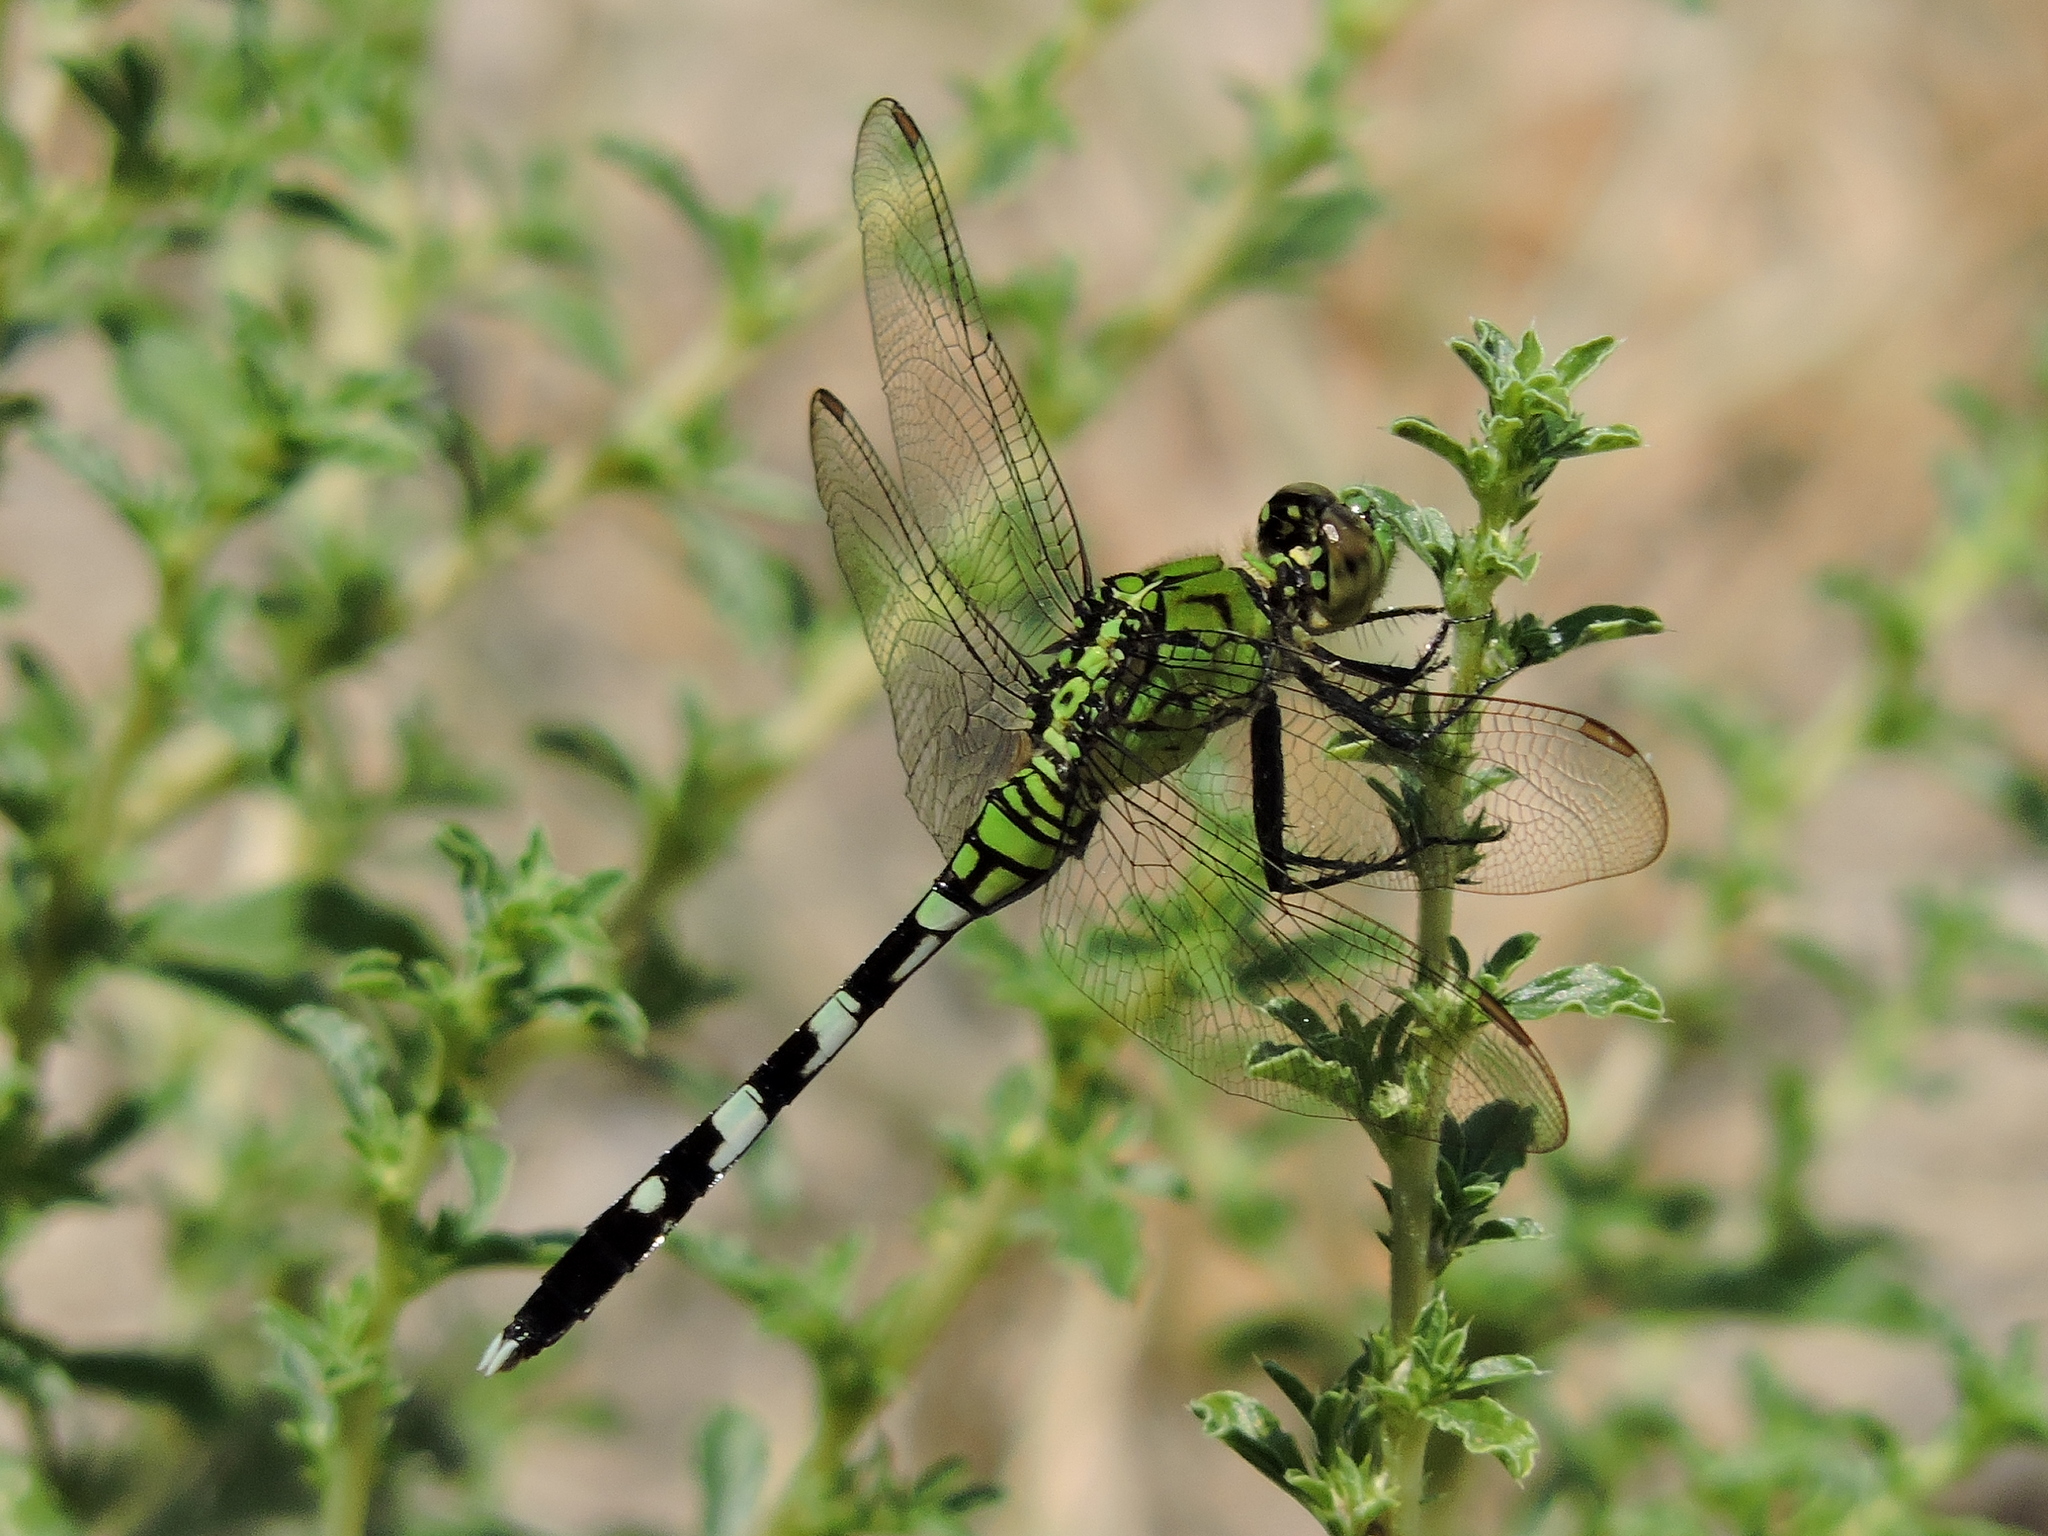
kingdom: Animalia
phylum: Arthropoda
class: Insecta
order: Odonata
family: Libellulidae
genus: Erythemis
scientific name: Erythemis simplicicollis
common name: Eastern pondhawk
